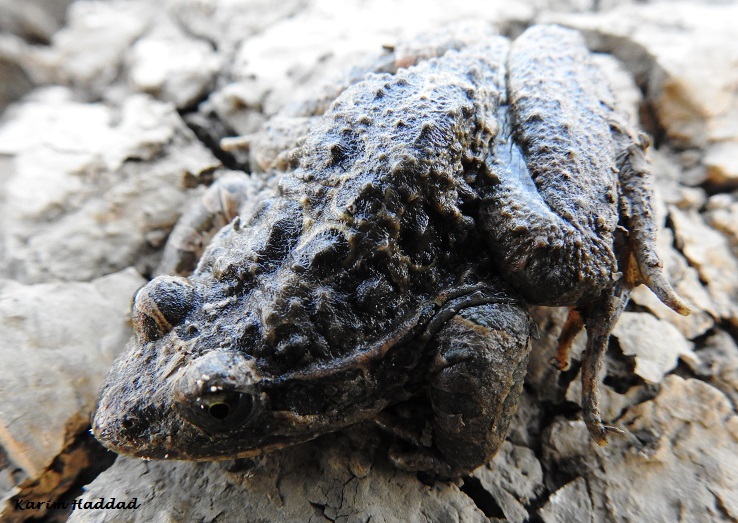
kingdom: Animalia
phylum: Chordata
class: Amphibia
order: Anura
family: Alytidae
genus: Discoglossus
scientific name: Discoglossus pictus
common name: Painted frog
